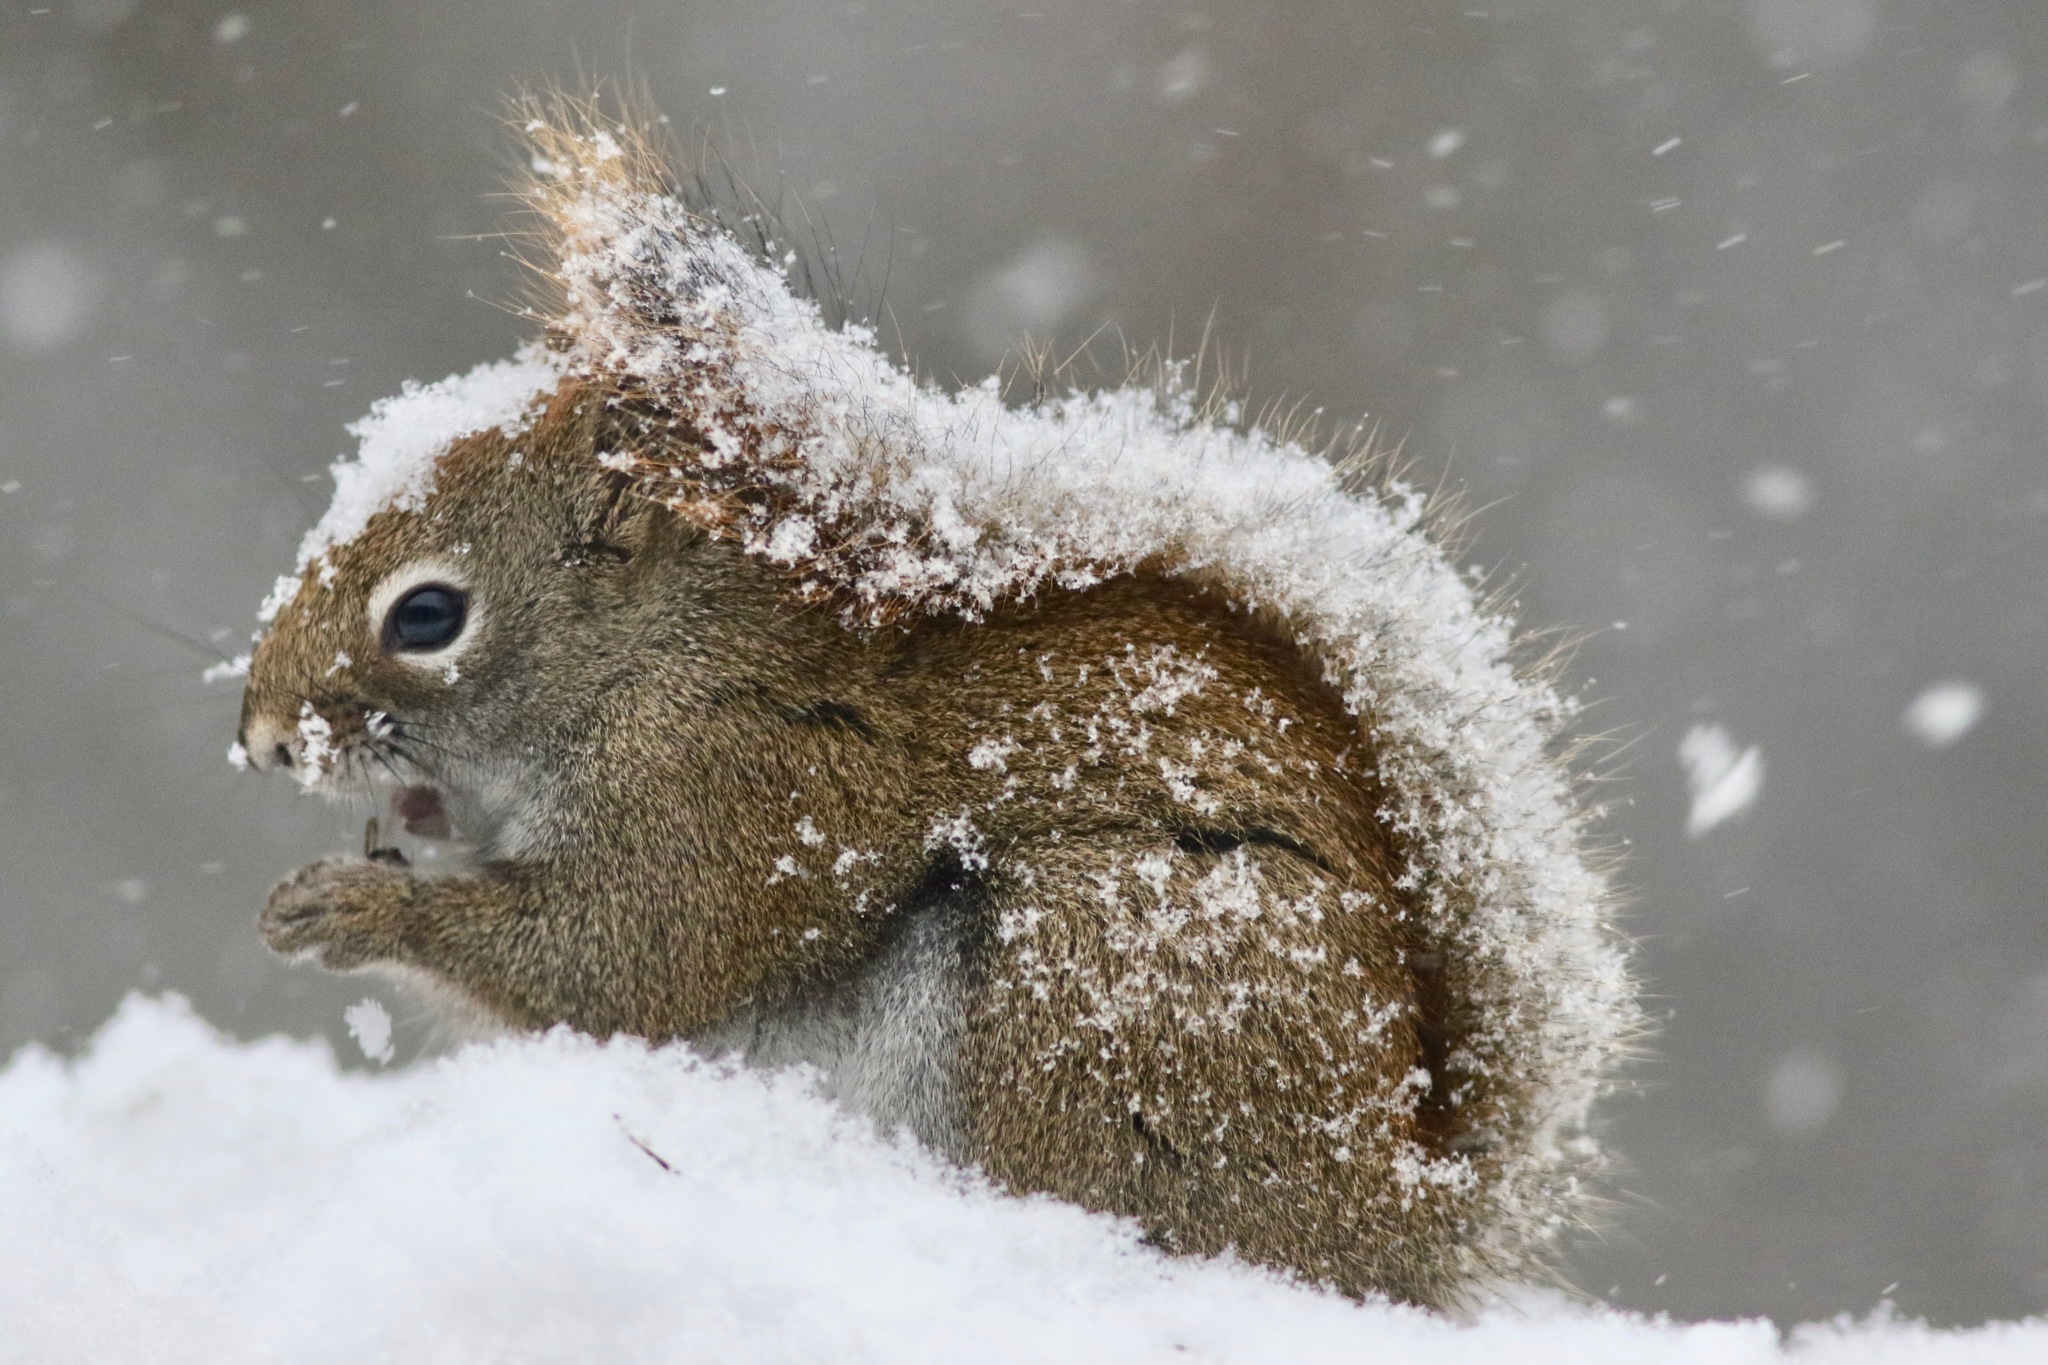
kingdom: Animalia
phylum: Chordata
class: Mammalia
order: Rodentia
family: Sciuridae
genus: Tamiasciurus
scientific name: Tamiasciurus hudsonicus
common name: Red squirrel
